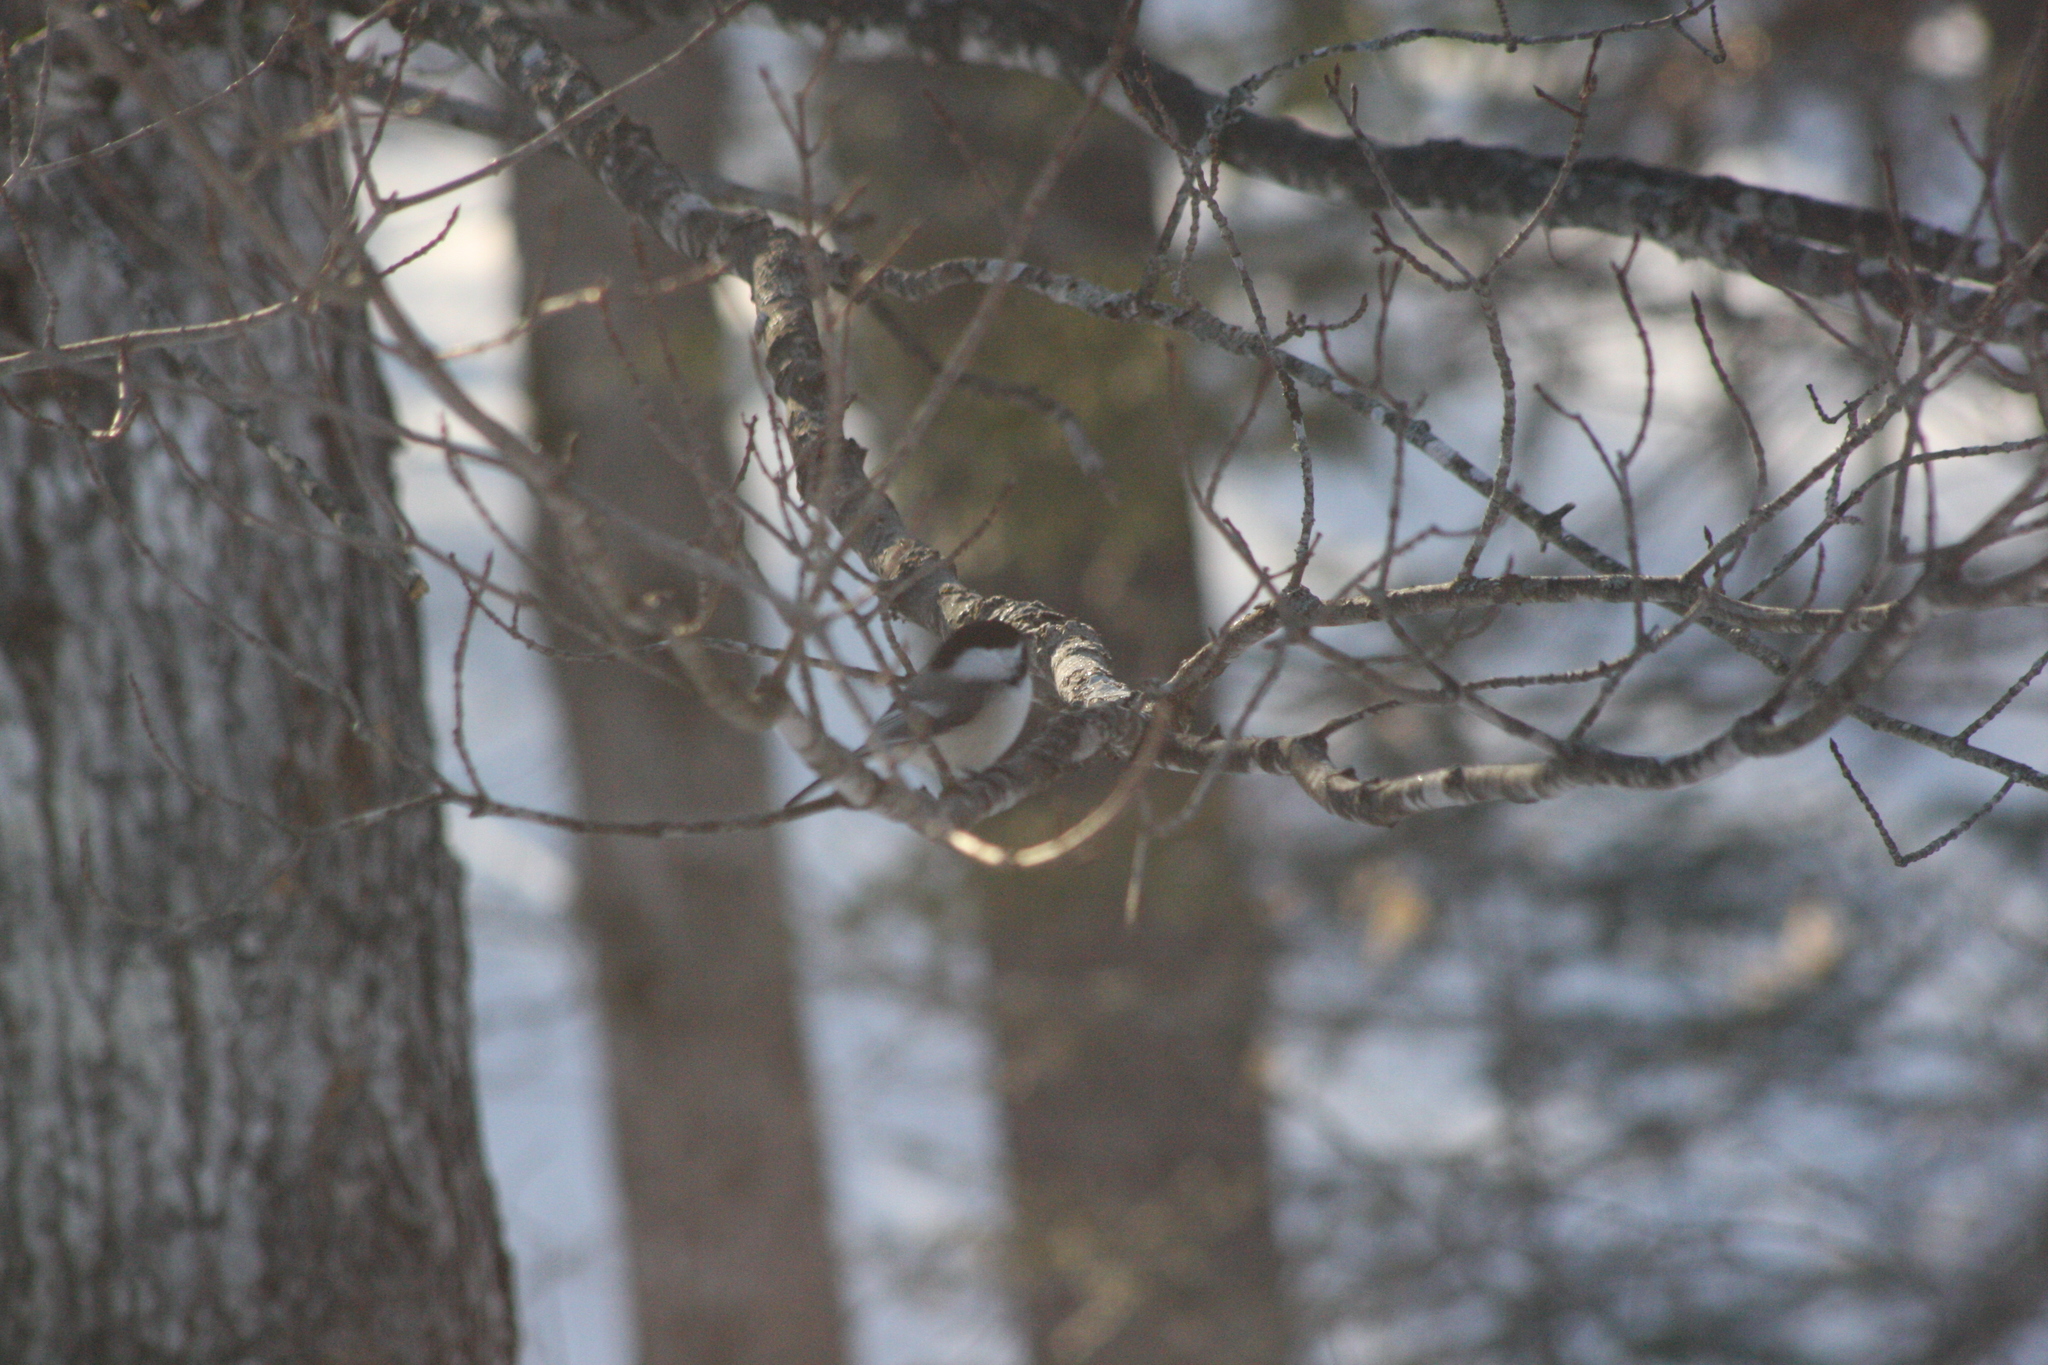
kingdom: Animalia
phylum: Chordata
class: Aves
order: Passeriformes
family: Paridae
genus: Poecile
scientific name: Poecile atricapillus
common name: Black-capped chickadee
